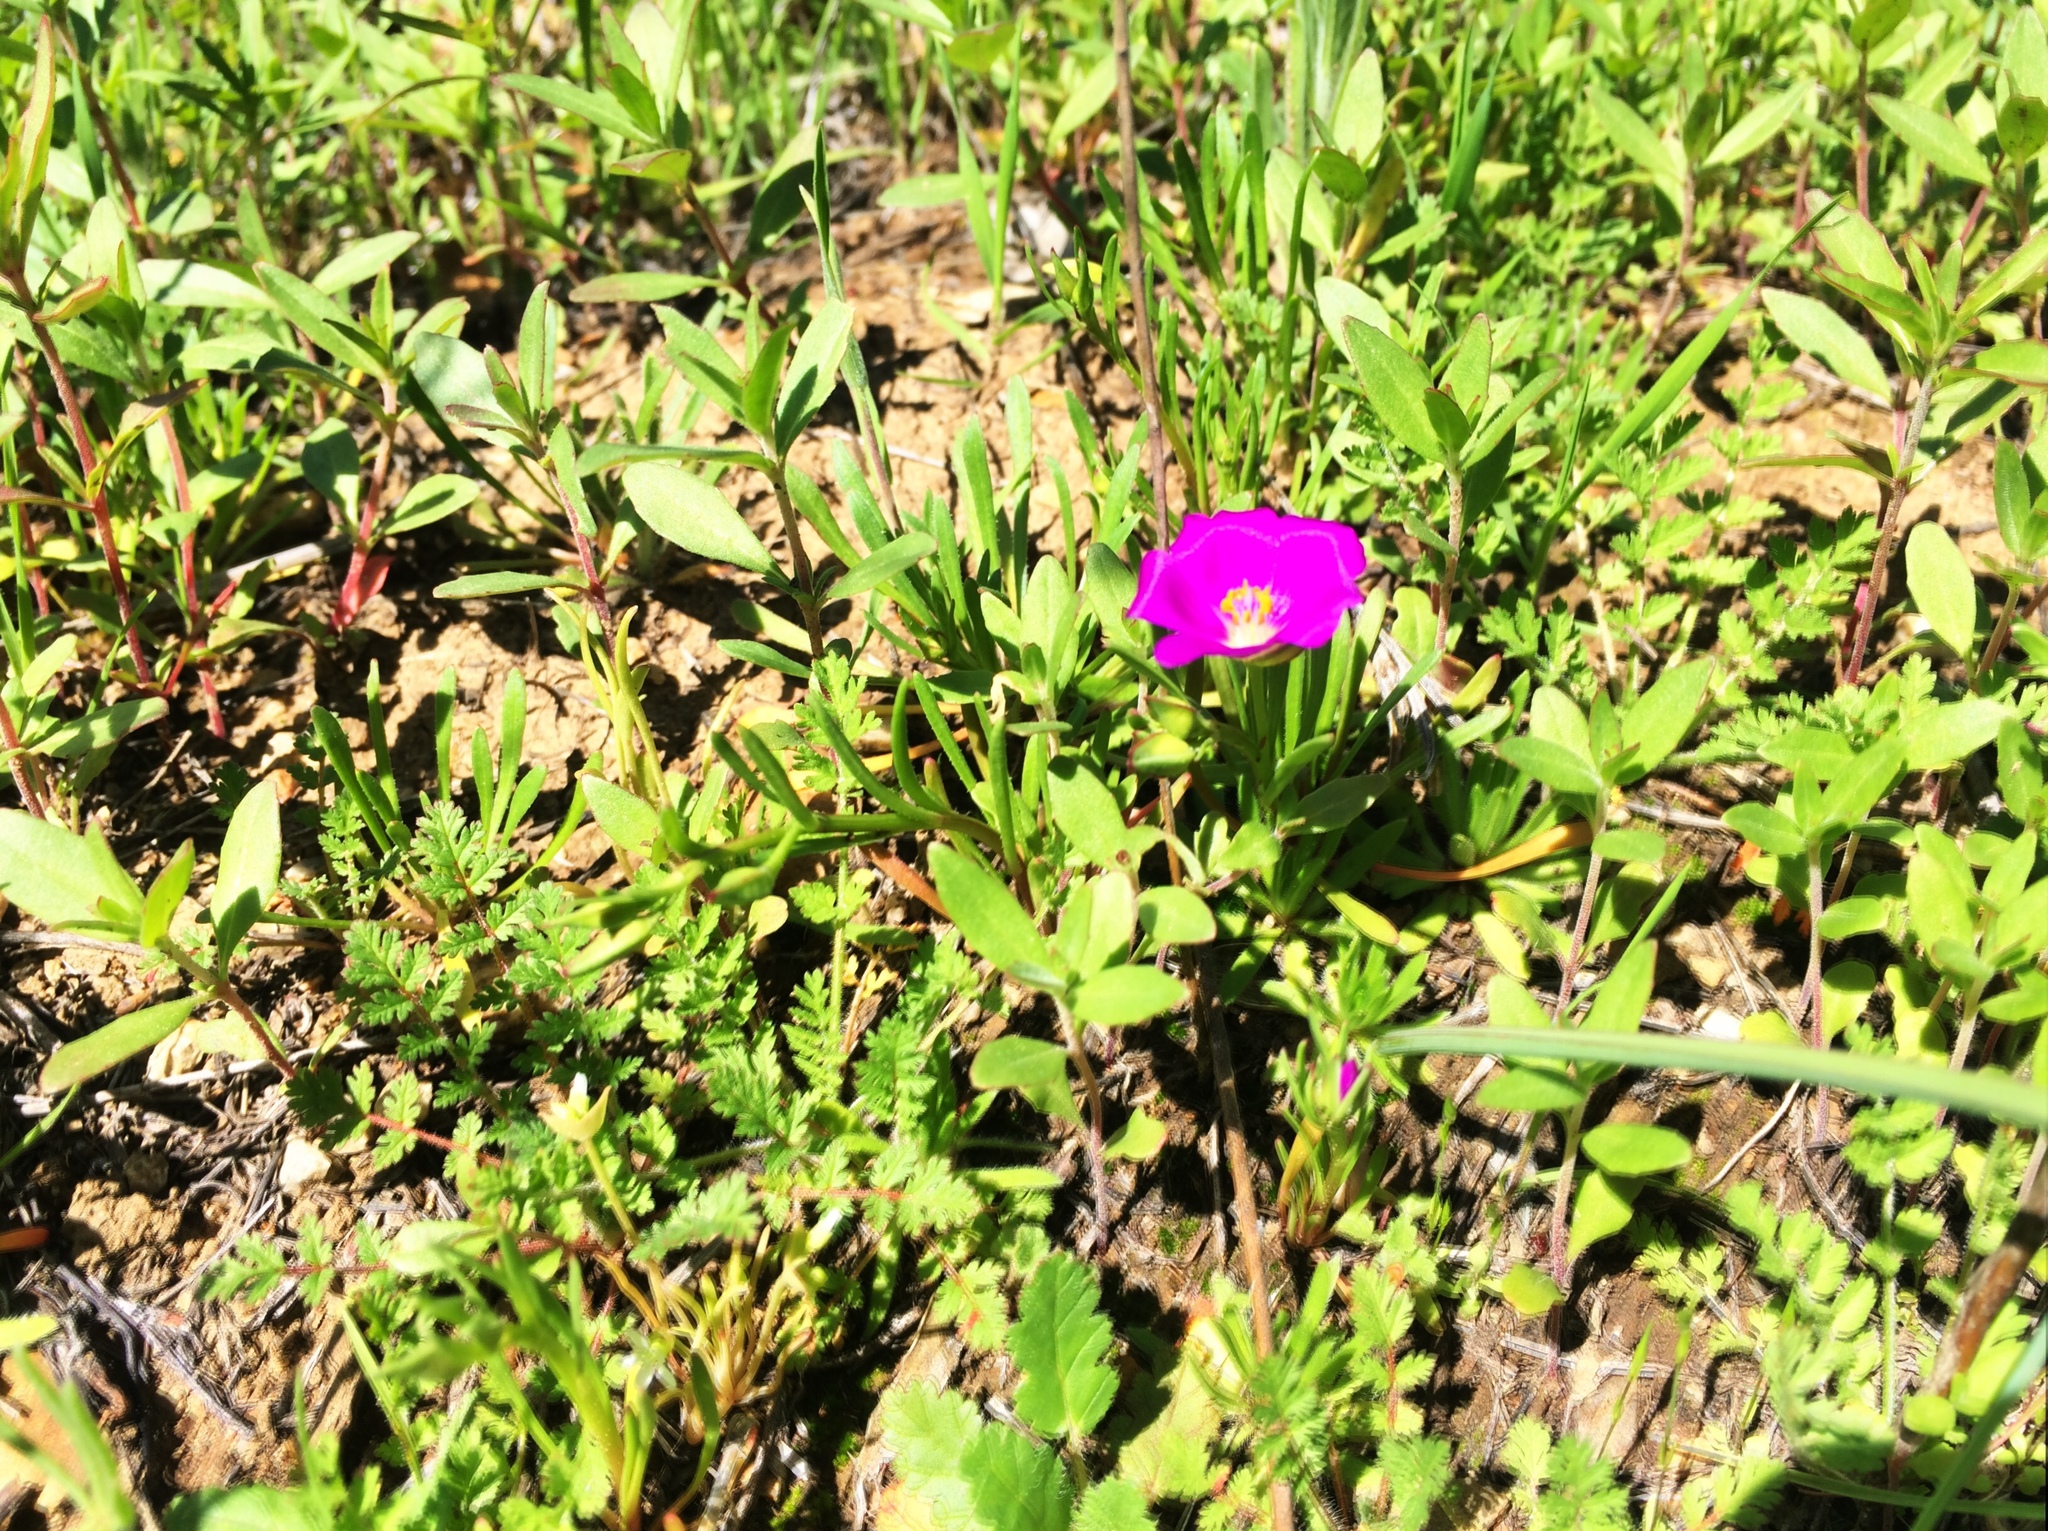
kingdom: Plantae
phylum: Tracheophyta
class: Magnoliopsida
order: Caryophyllales
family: Montiaceae
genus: Calandrinia
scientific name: Calandrinia menziesii
